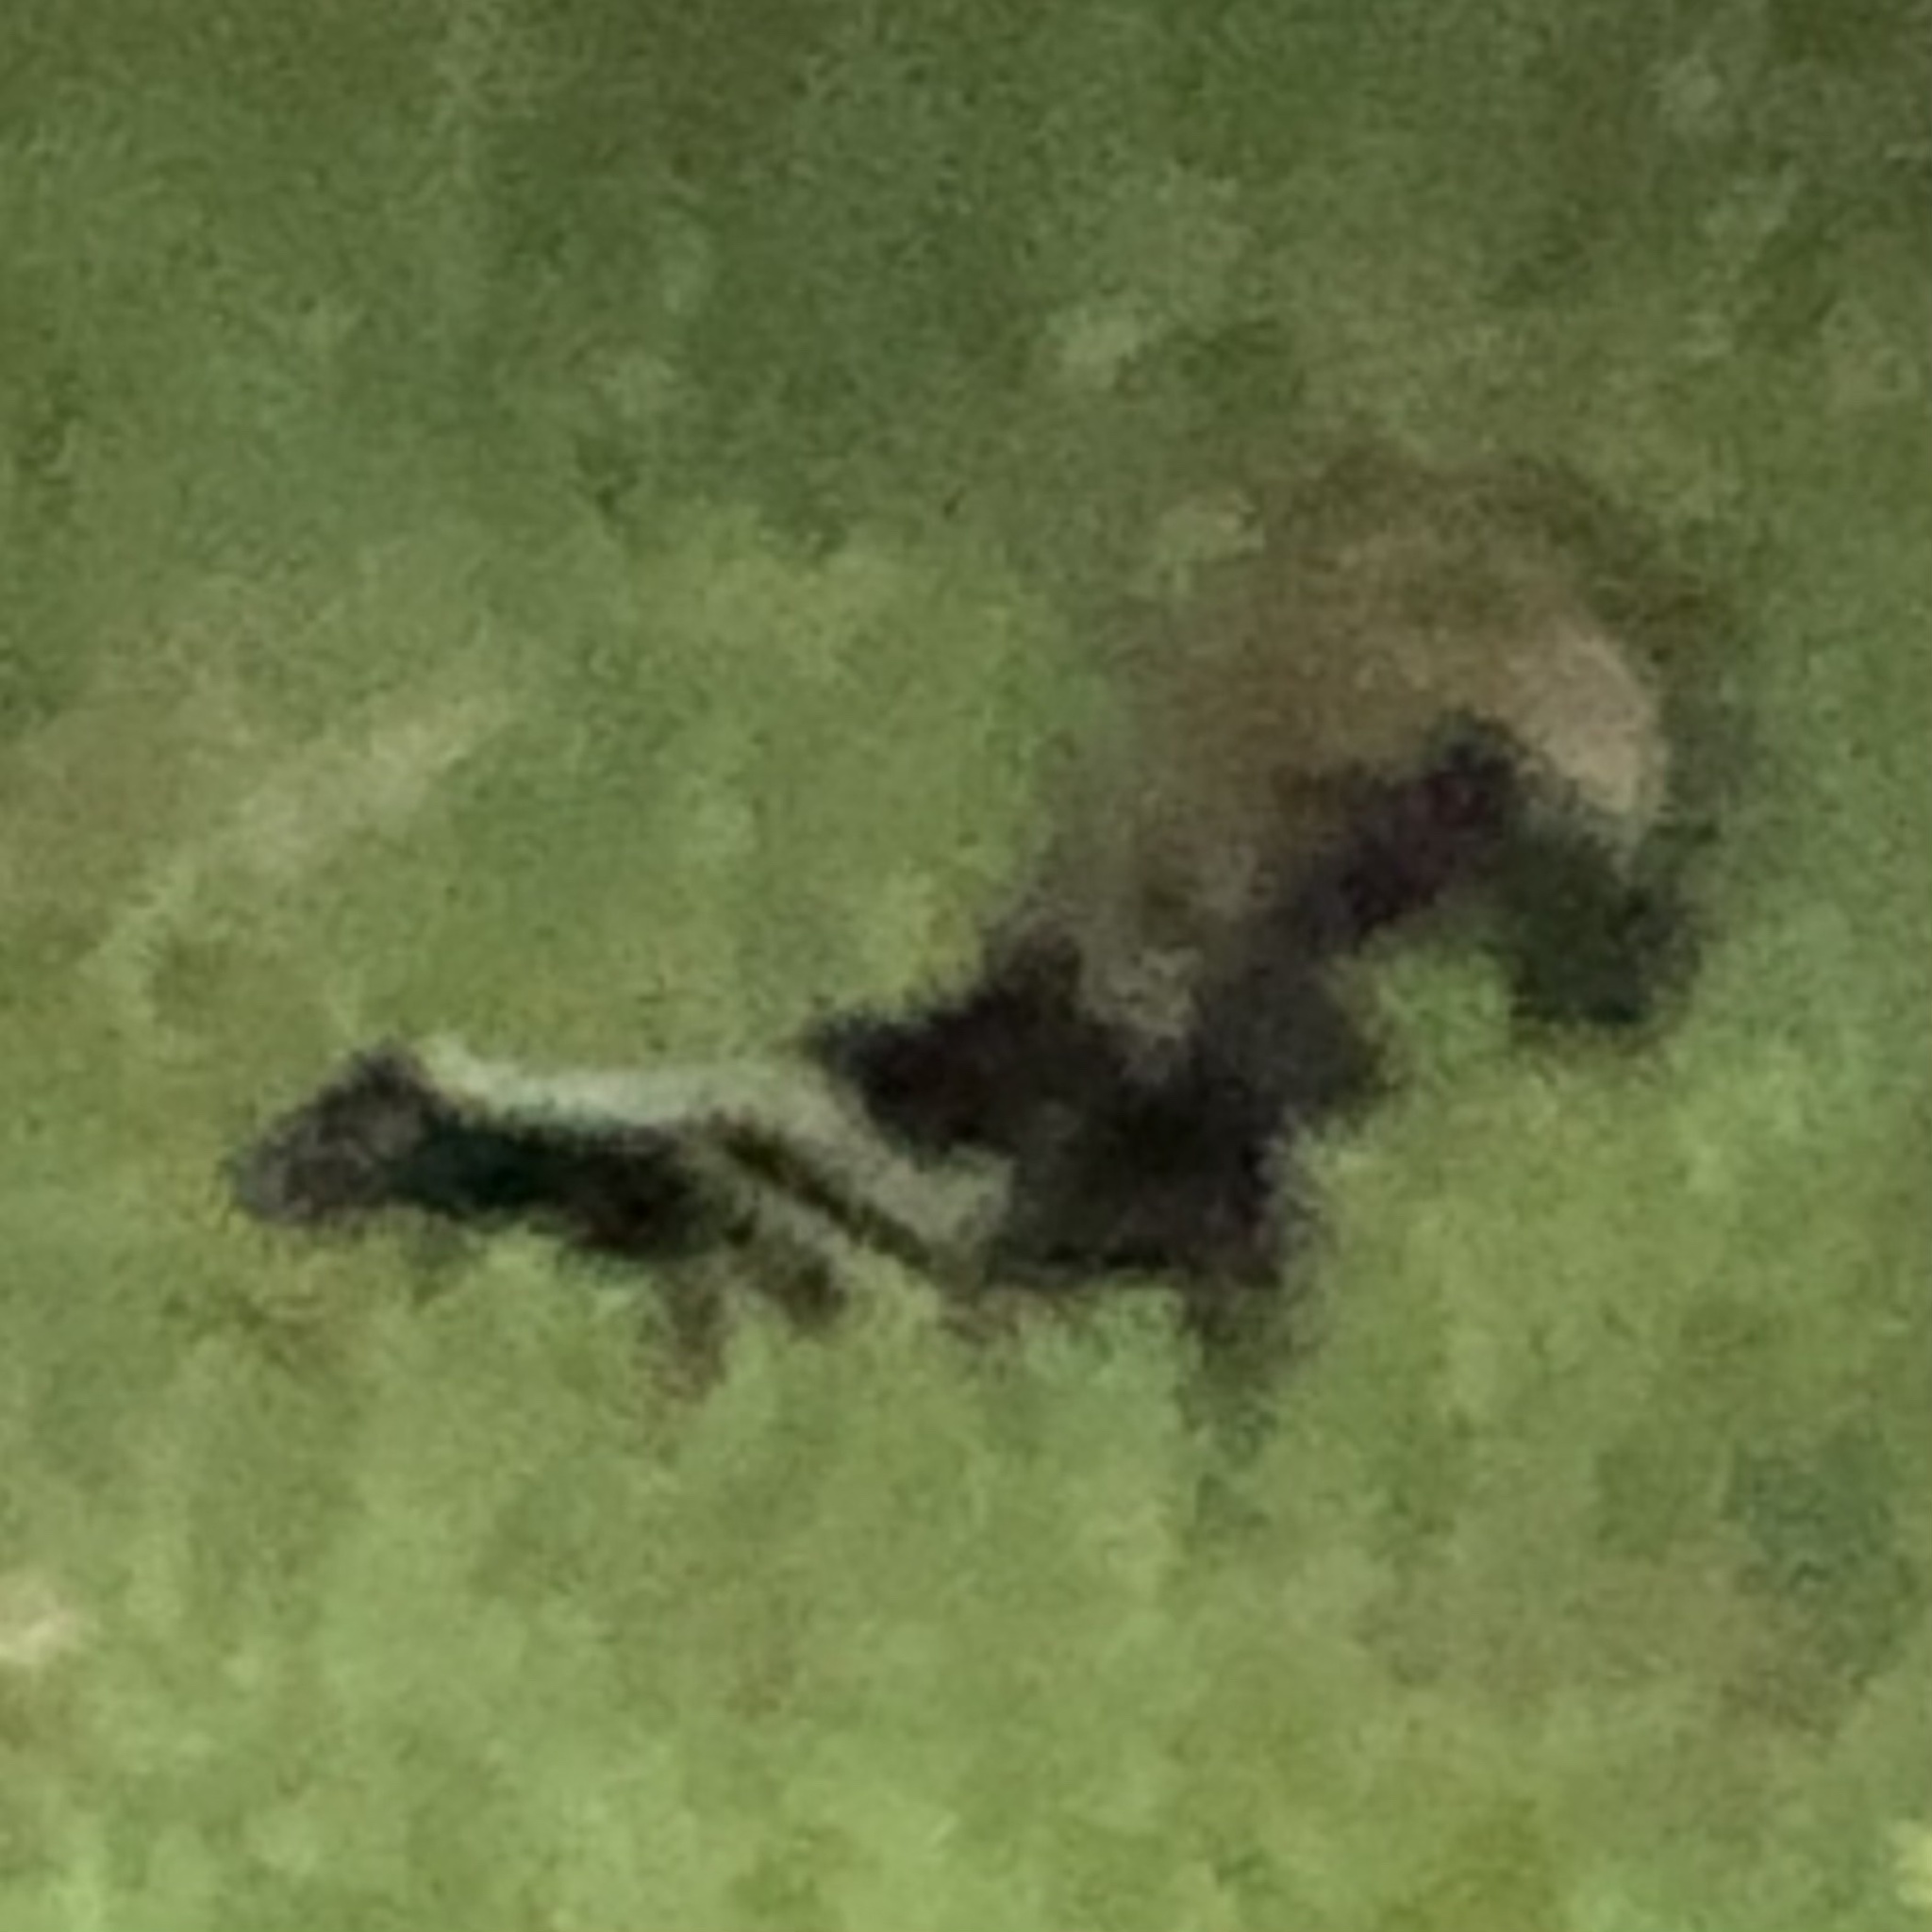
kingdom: Animalia
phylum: Chordata
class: Mammalia
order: Carnivora
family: Mephitidae
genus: Mephitis
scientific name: Mephitis mephitis
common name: Striped skunk
